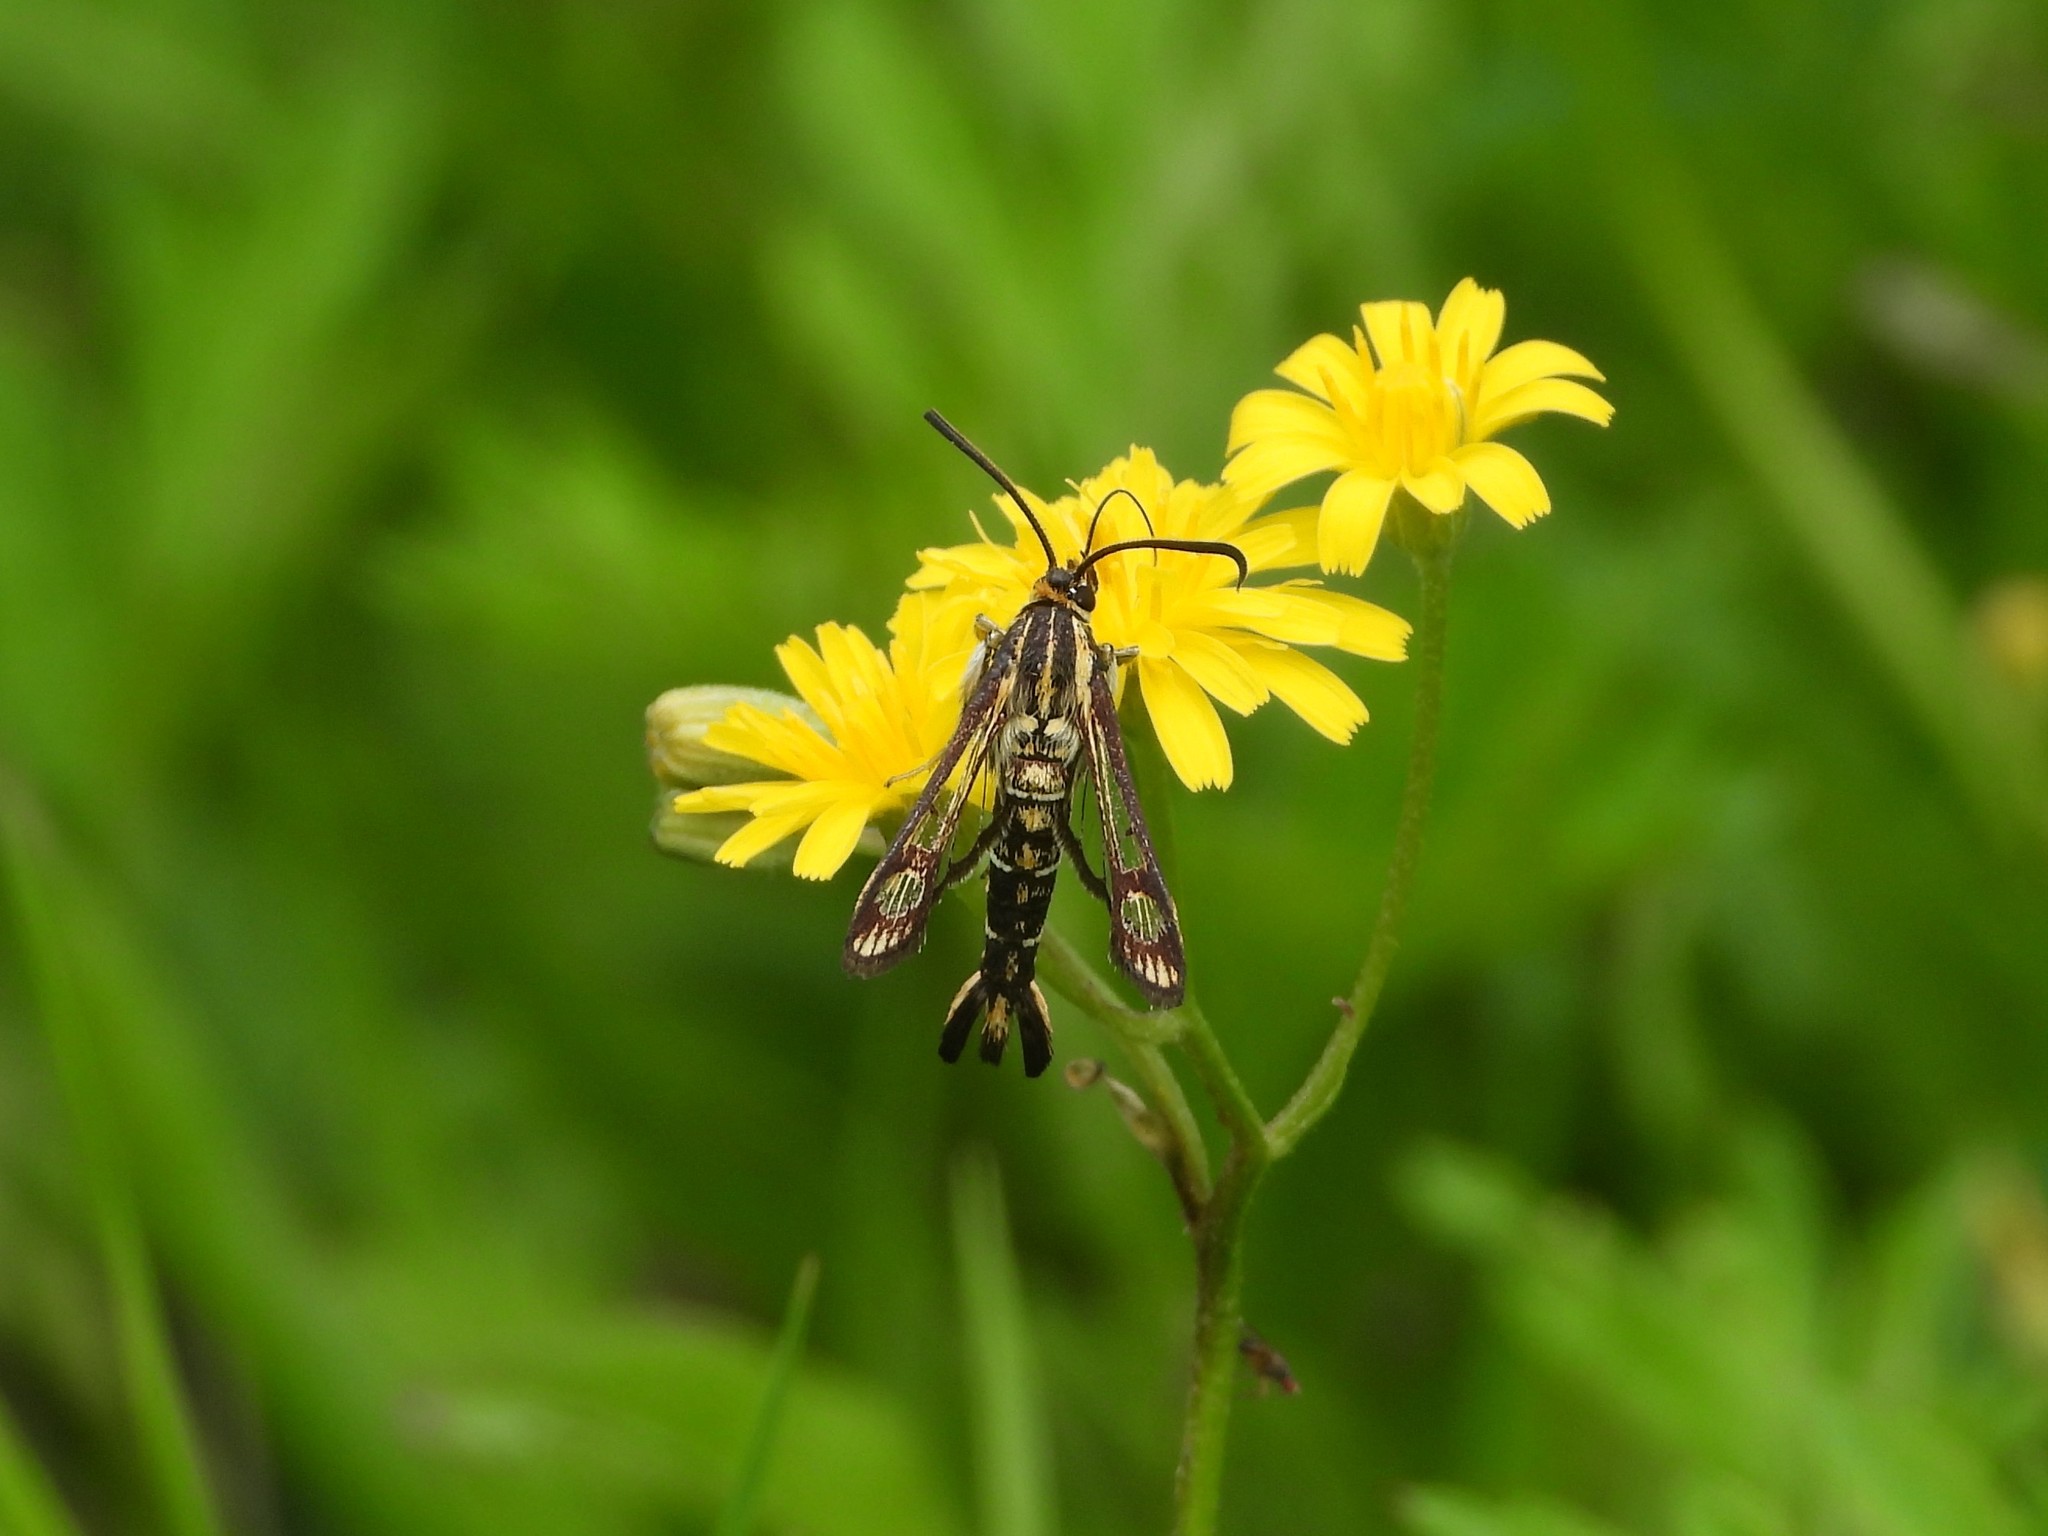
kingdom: Animalia
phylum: Arthropoda
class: Insecta
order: Lepidoptera
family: Sesiidae
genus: Pyropteron
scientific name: Pyropteron triannuliformis
